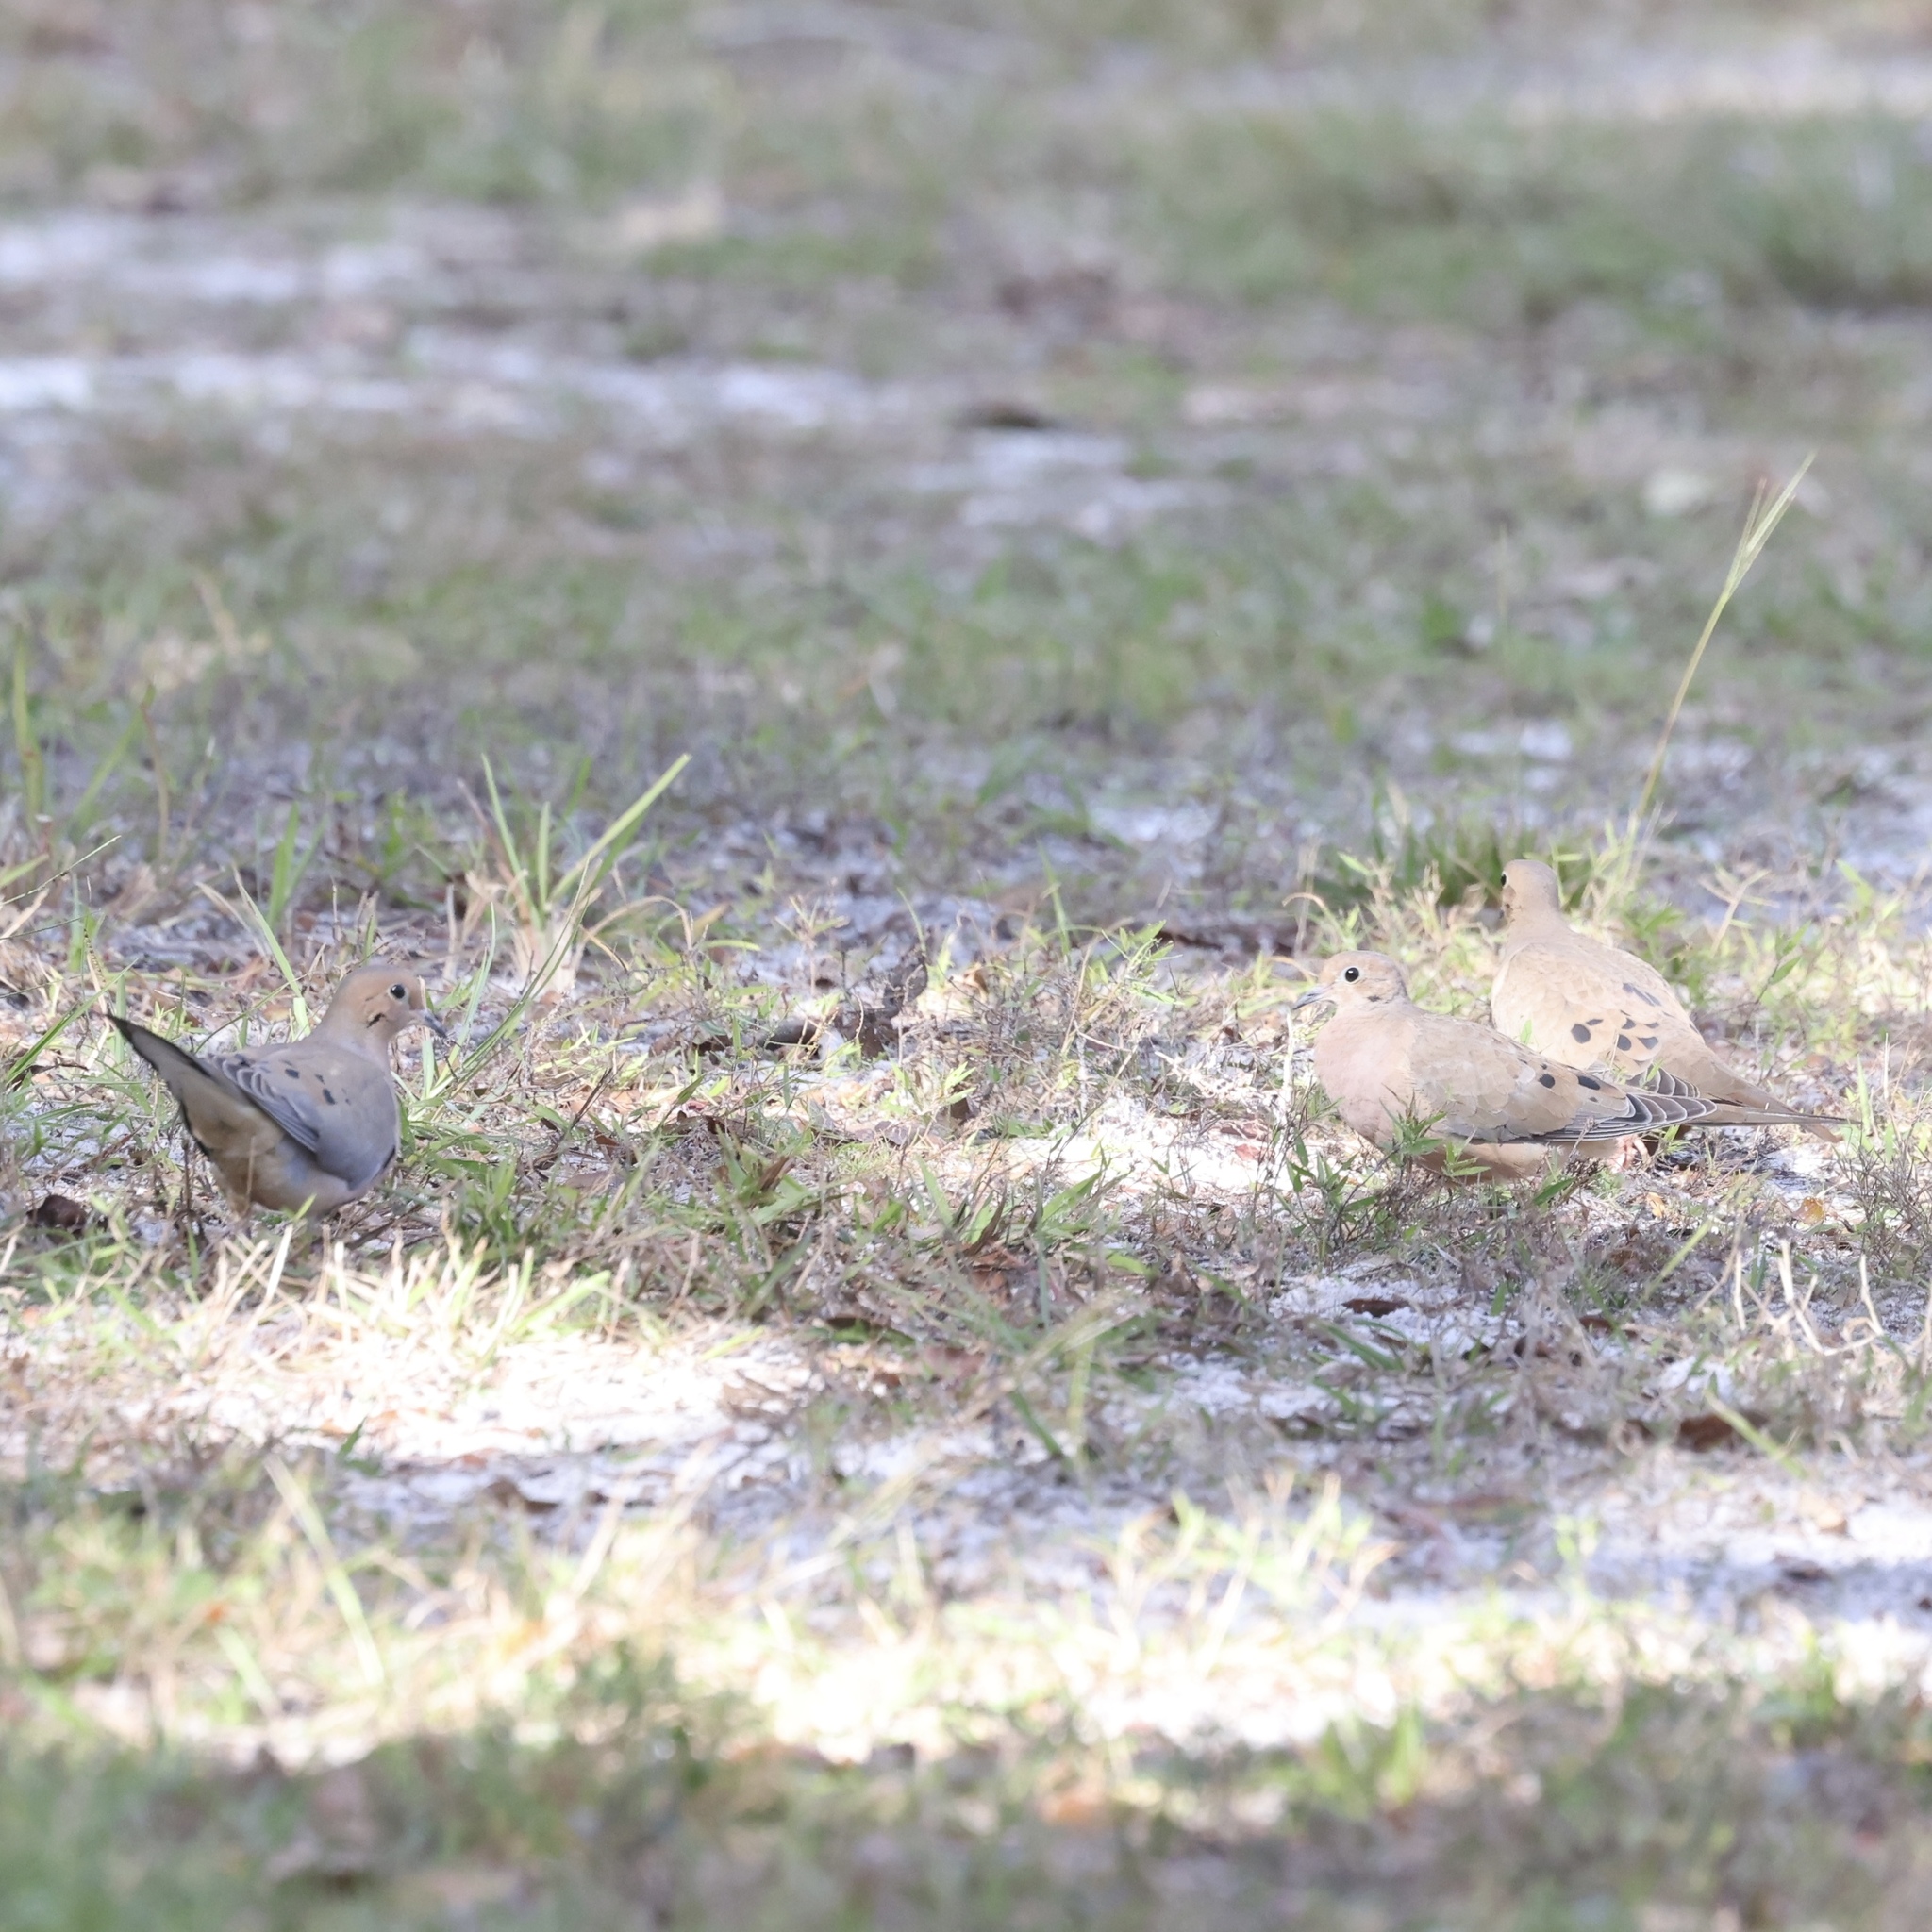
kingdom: Animalia
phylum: Chordata
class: Aves
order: Columbiformes
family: Columbidae
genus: Zenaida
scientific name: Zenaida macroura
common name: Mourning dove
